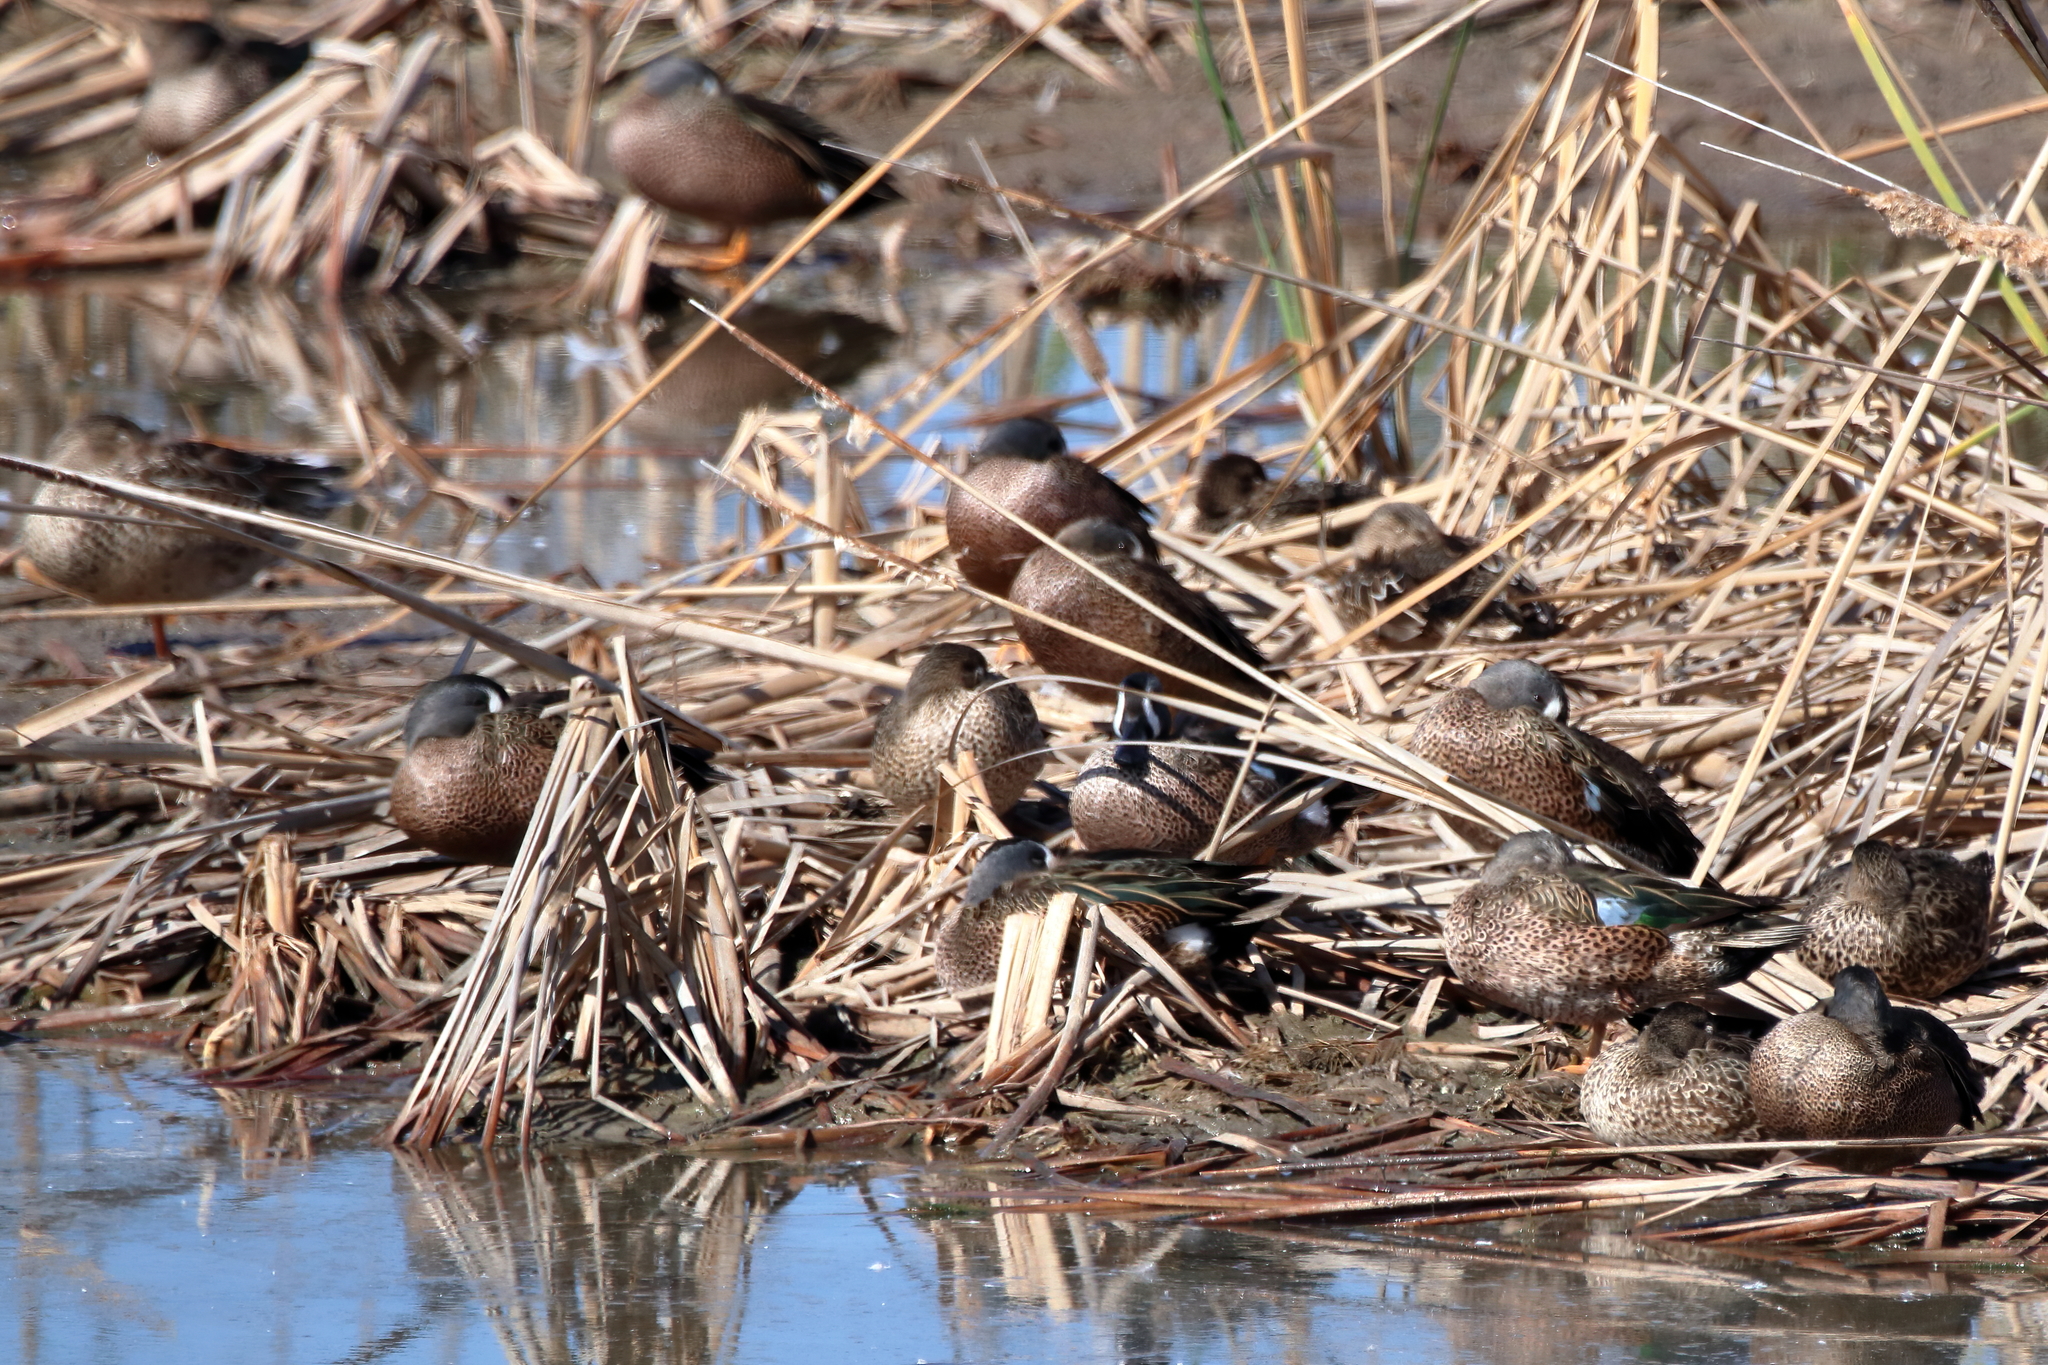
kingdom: Animalia
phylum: Chordata
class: Aves
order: Anseriformes
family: Anatidae
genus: Spatula
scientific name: Spatula discors
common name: Blue-winged teal
